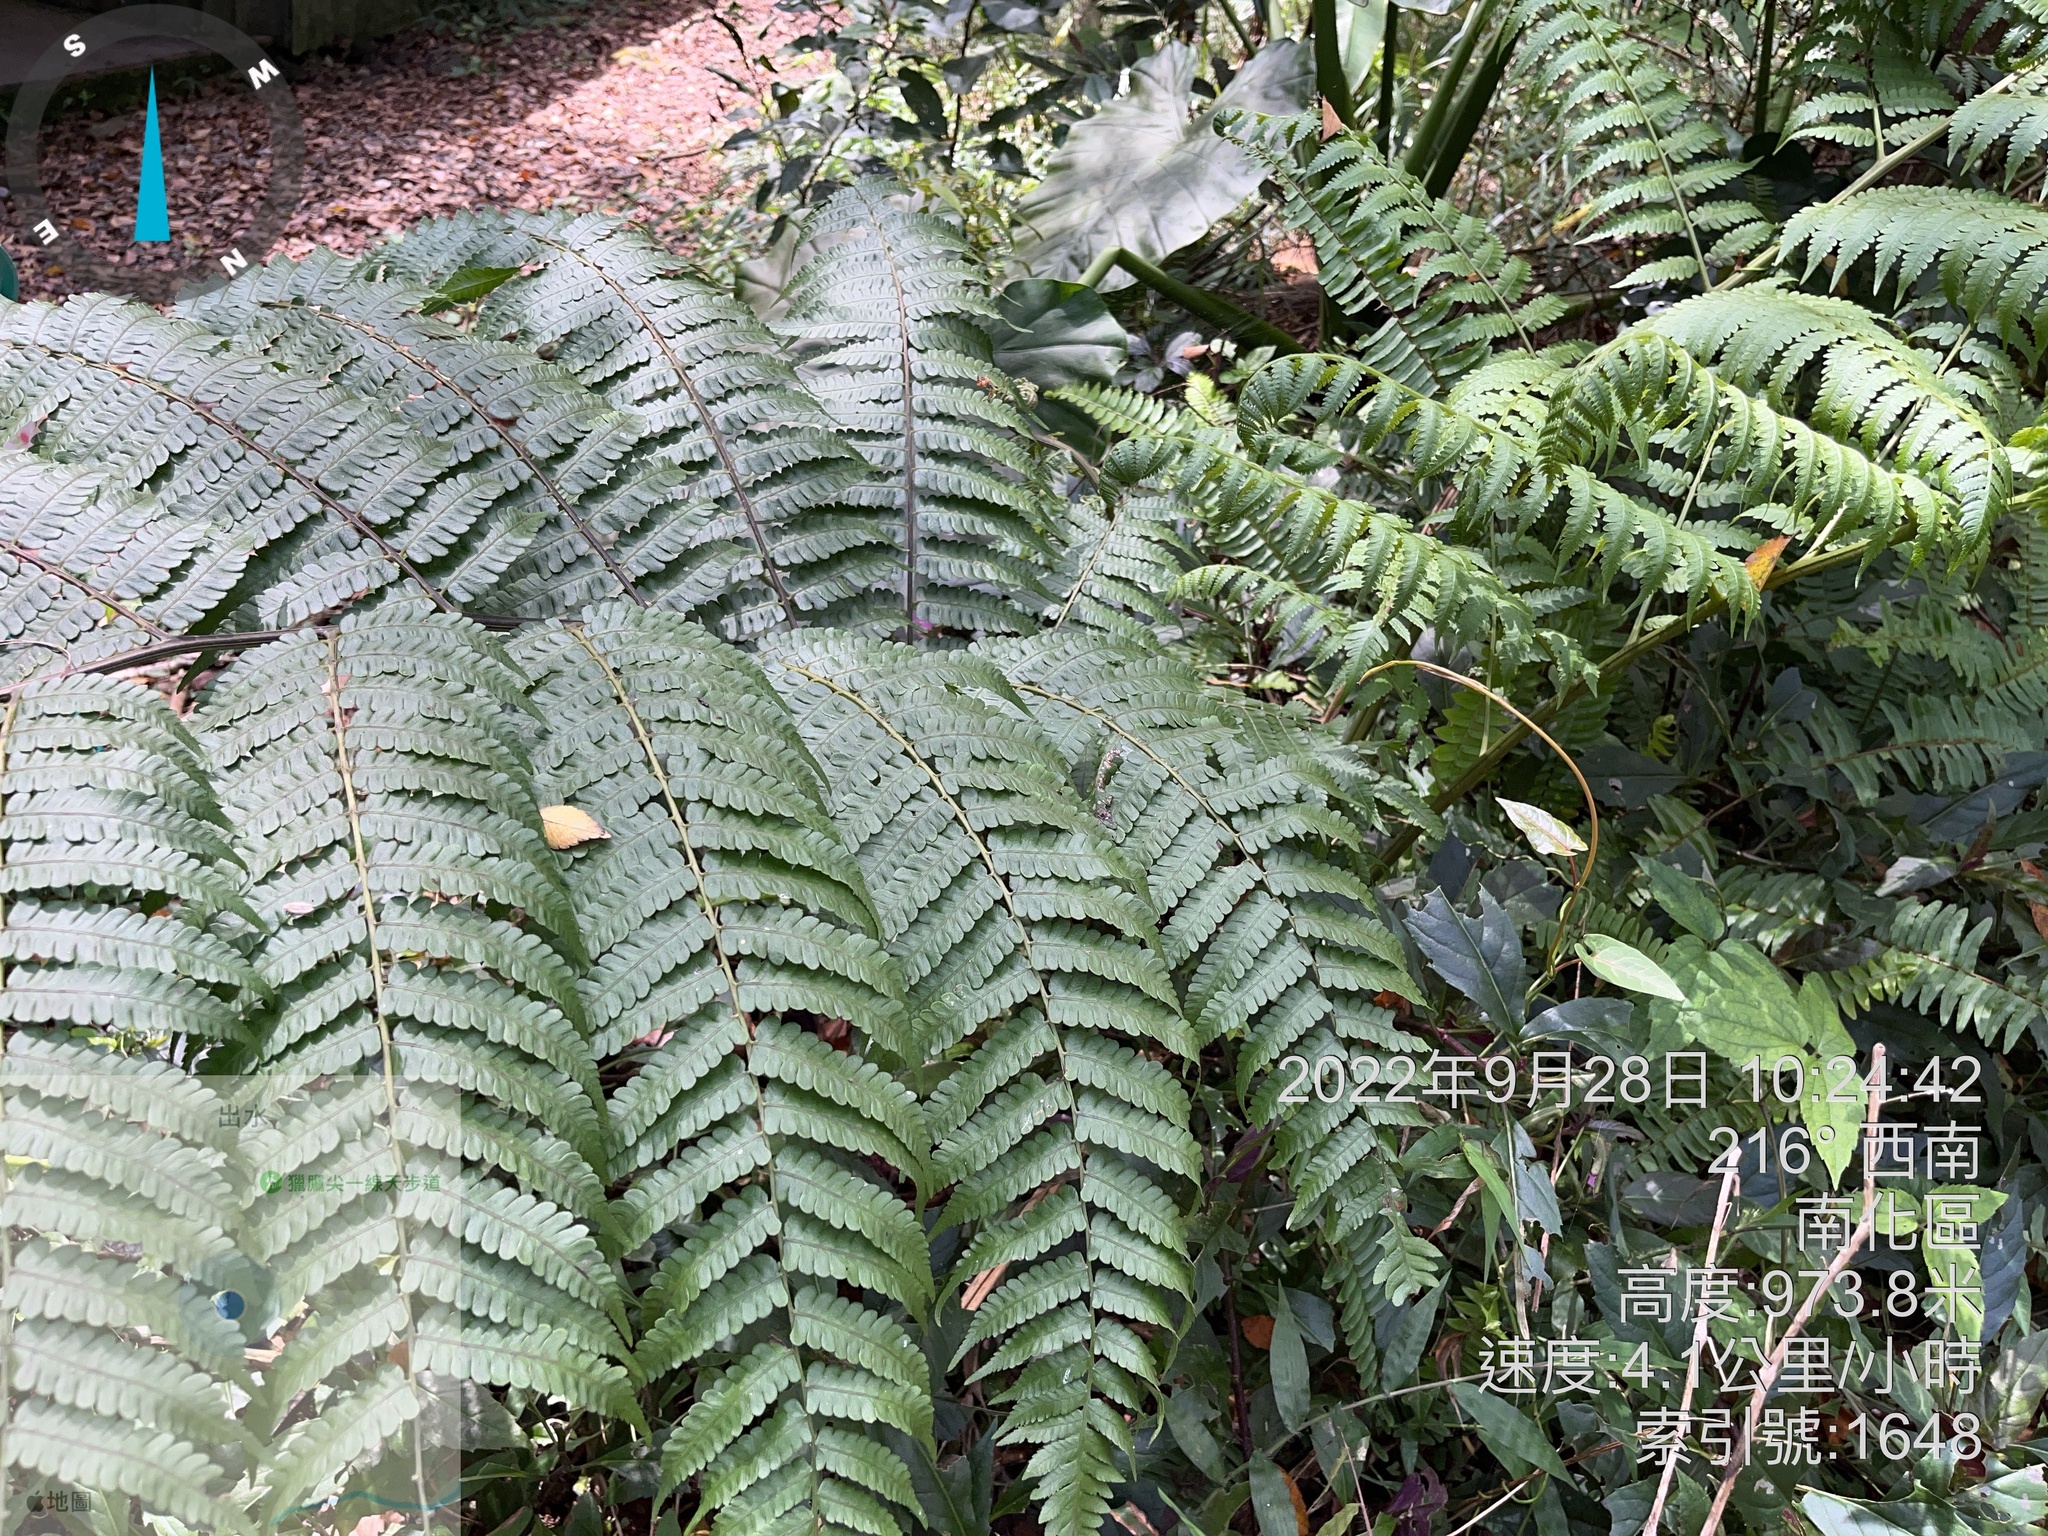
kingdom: Plantae
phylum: Tracheophyta
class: Polypodiopsida
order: Polypodiales
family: Athyriaceae
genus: Diplazium
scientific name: Diplazium maximum
